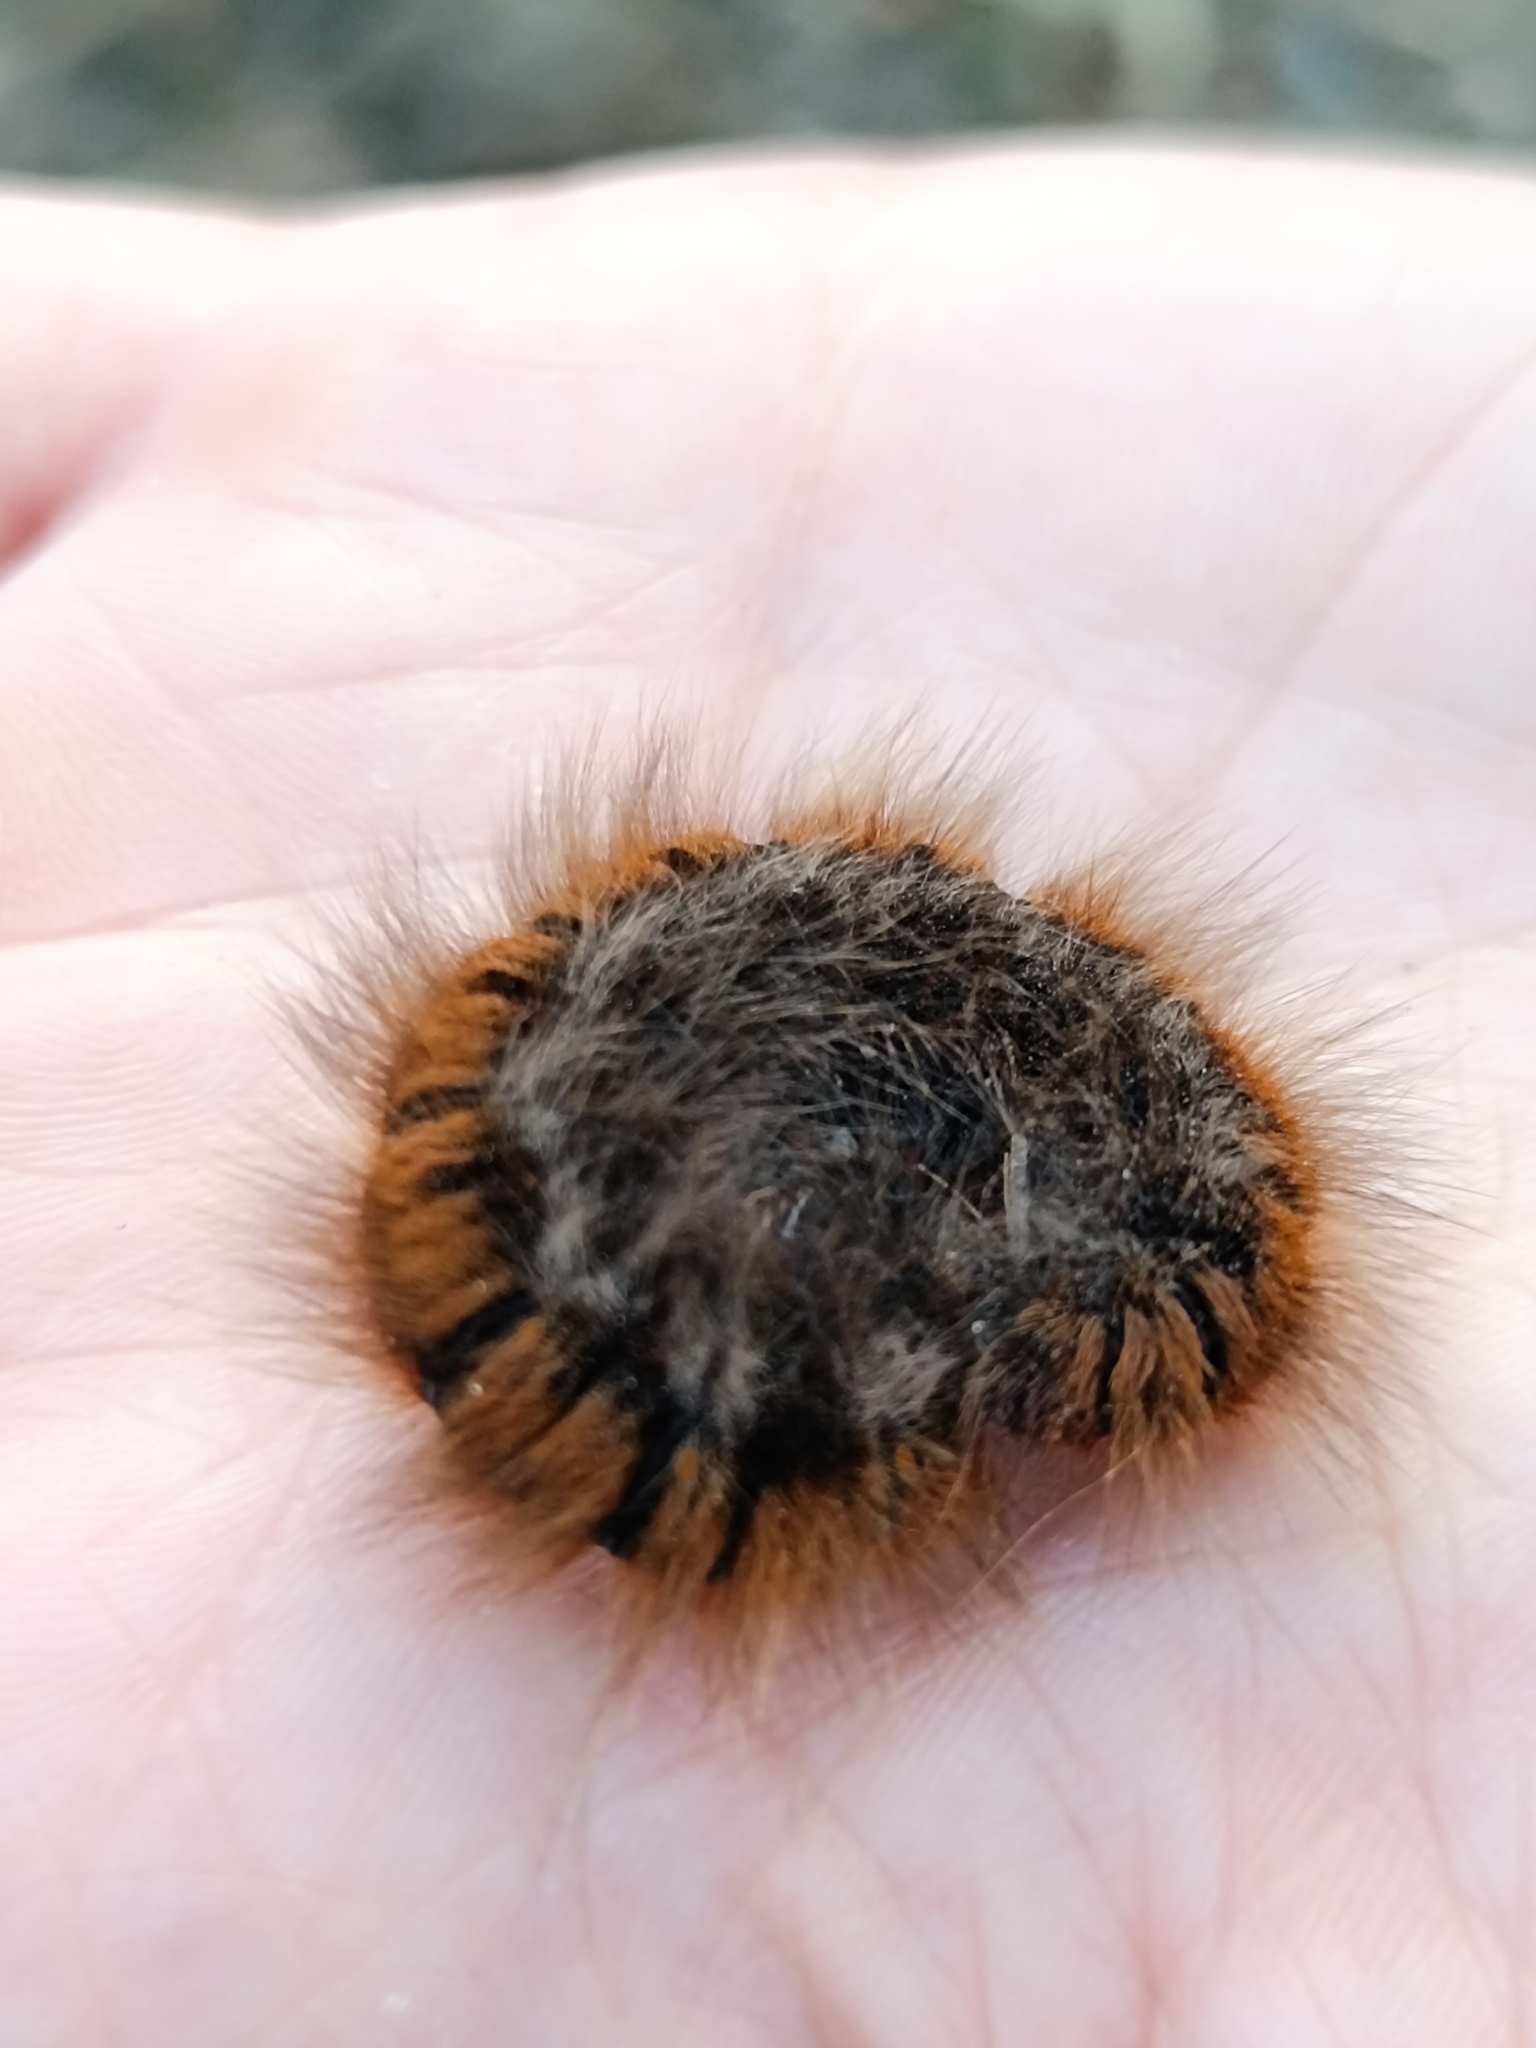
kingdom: Animalia
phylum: Arthropoda
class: Insecta
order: Lepidoptera
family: Lasiocampidae
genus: Macrothylacia
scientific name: Macrothylacia rubi
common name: Fox moth
